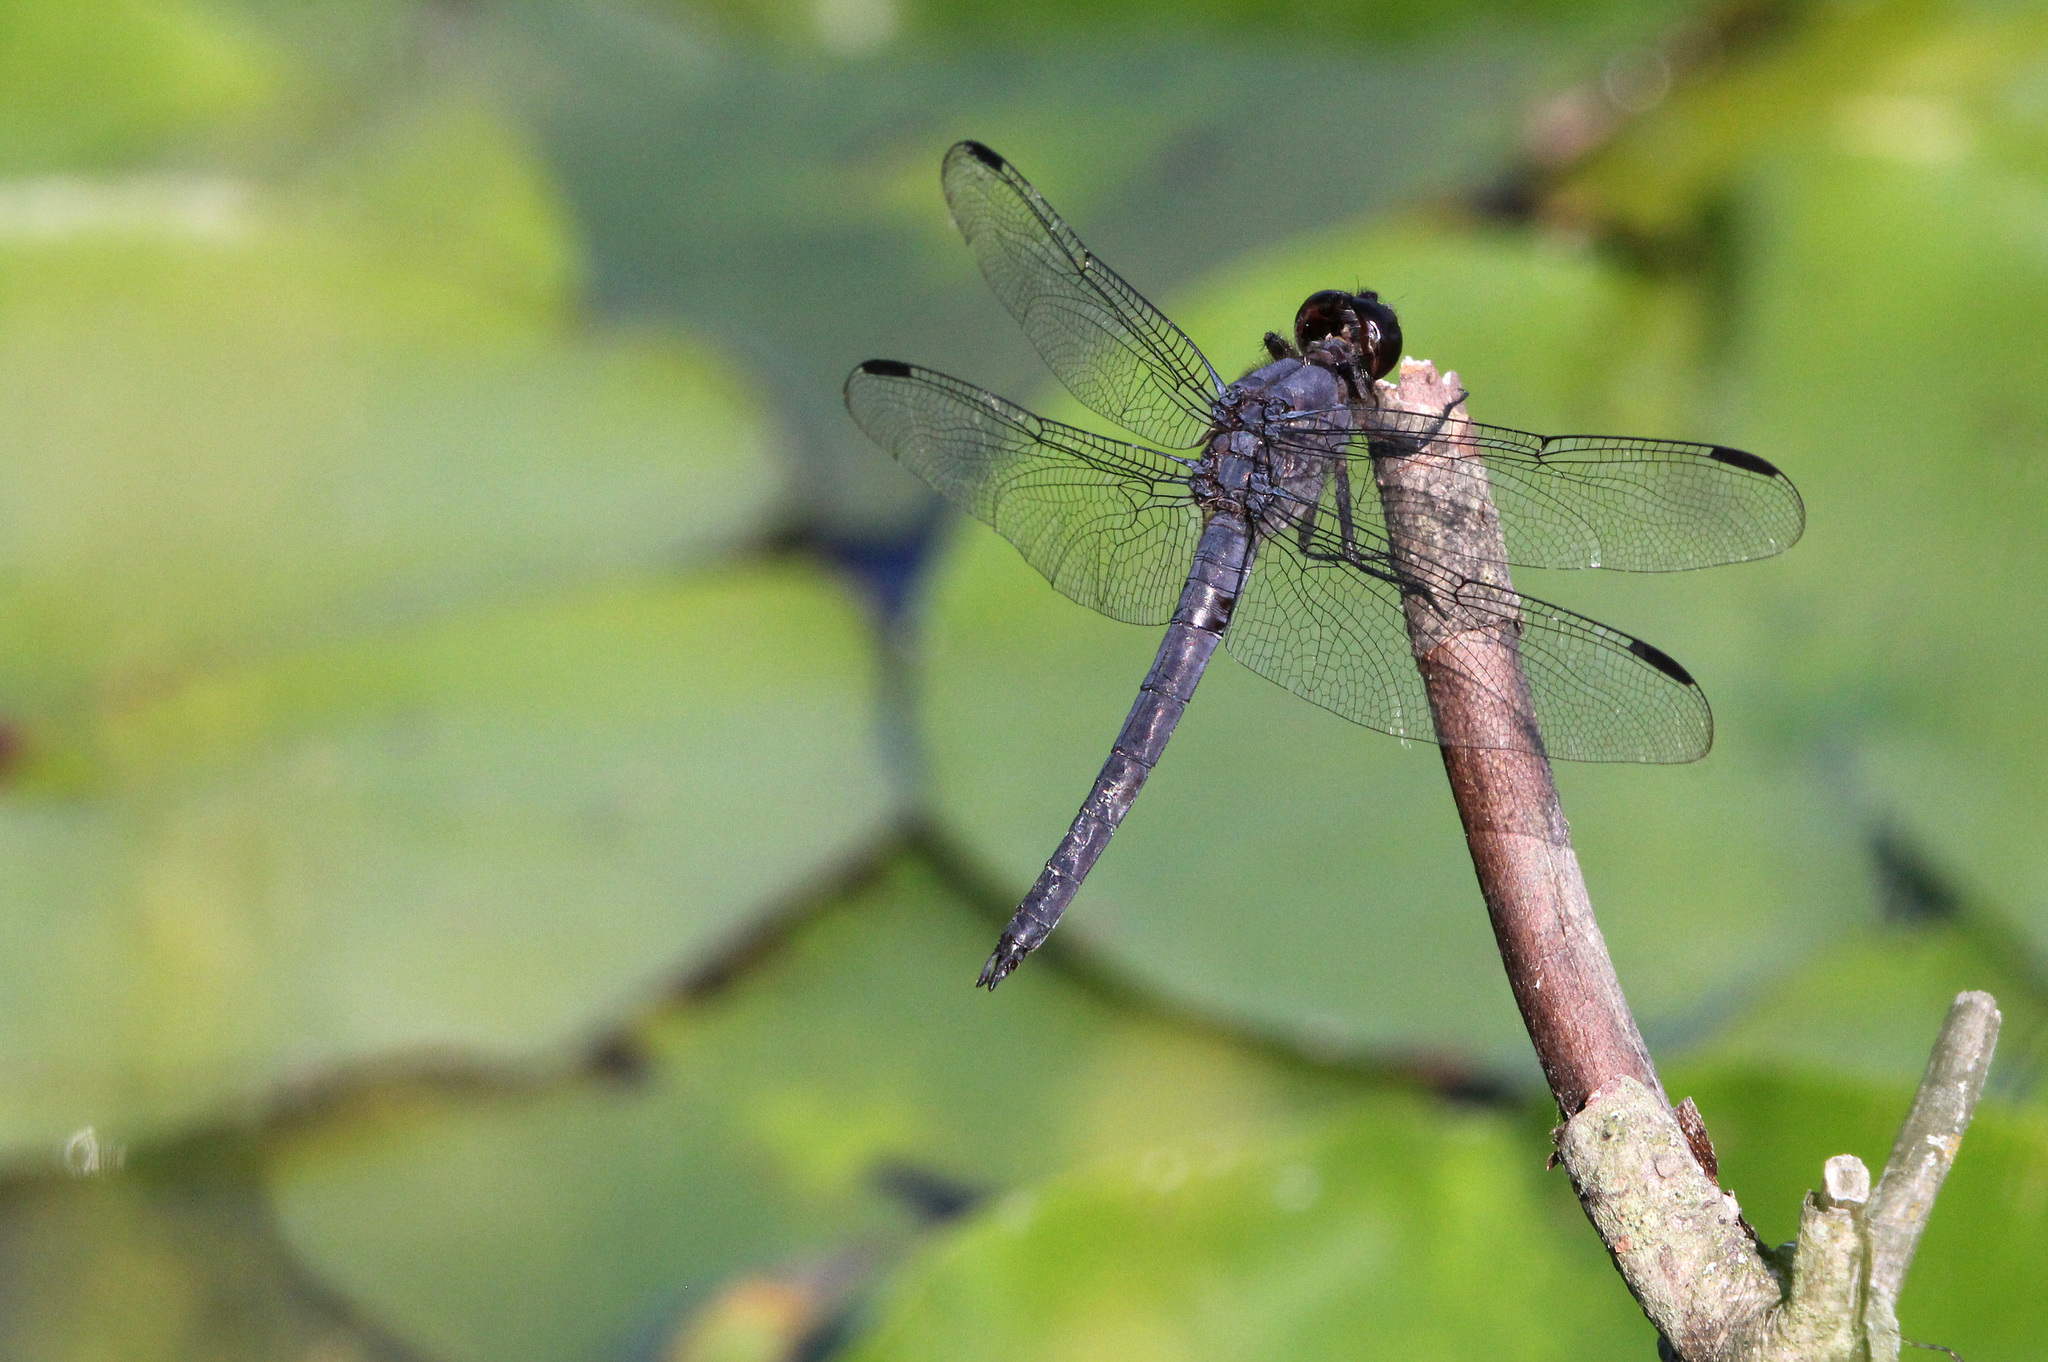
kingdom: Animalia
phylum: Arthropoda
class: Insecta
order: Odonata
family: Libellulidae
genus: Libellula
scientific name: Libellula incesta
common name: Slaty skimmer
